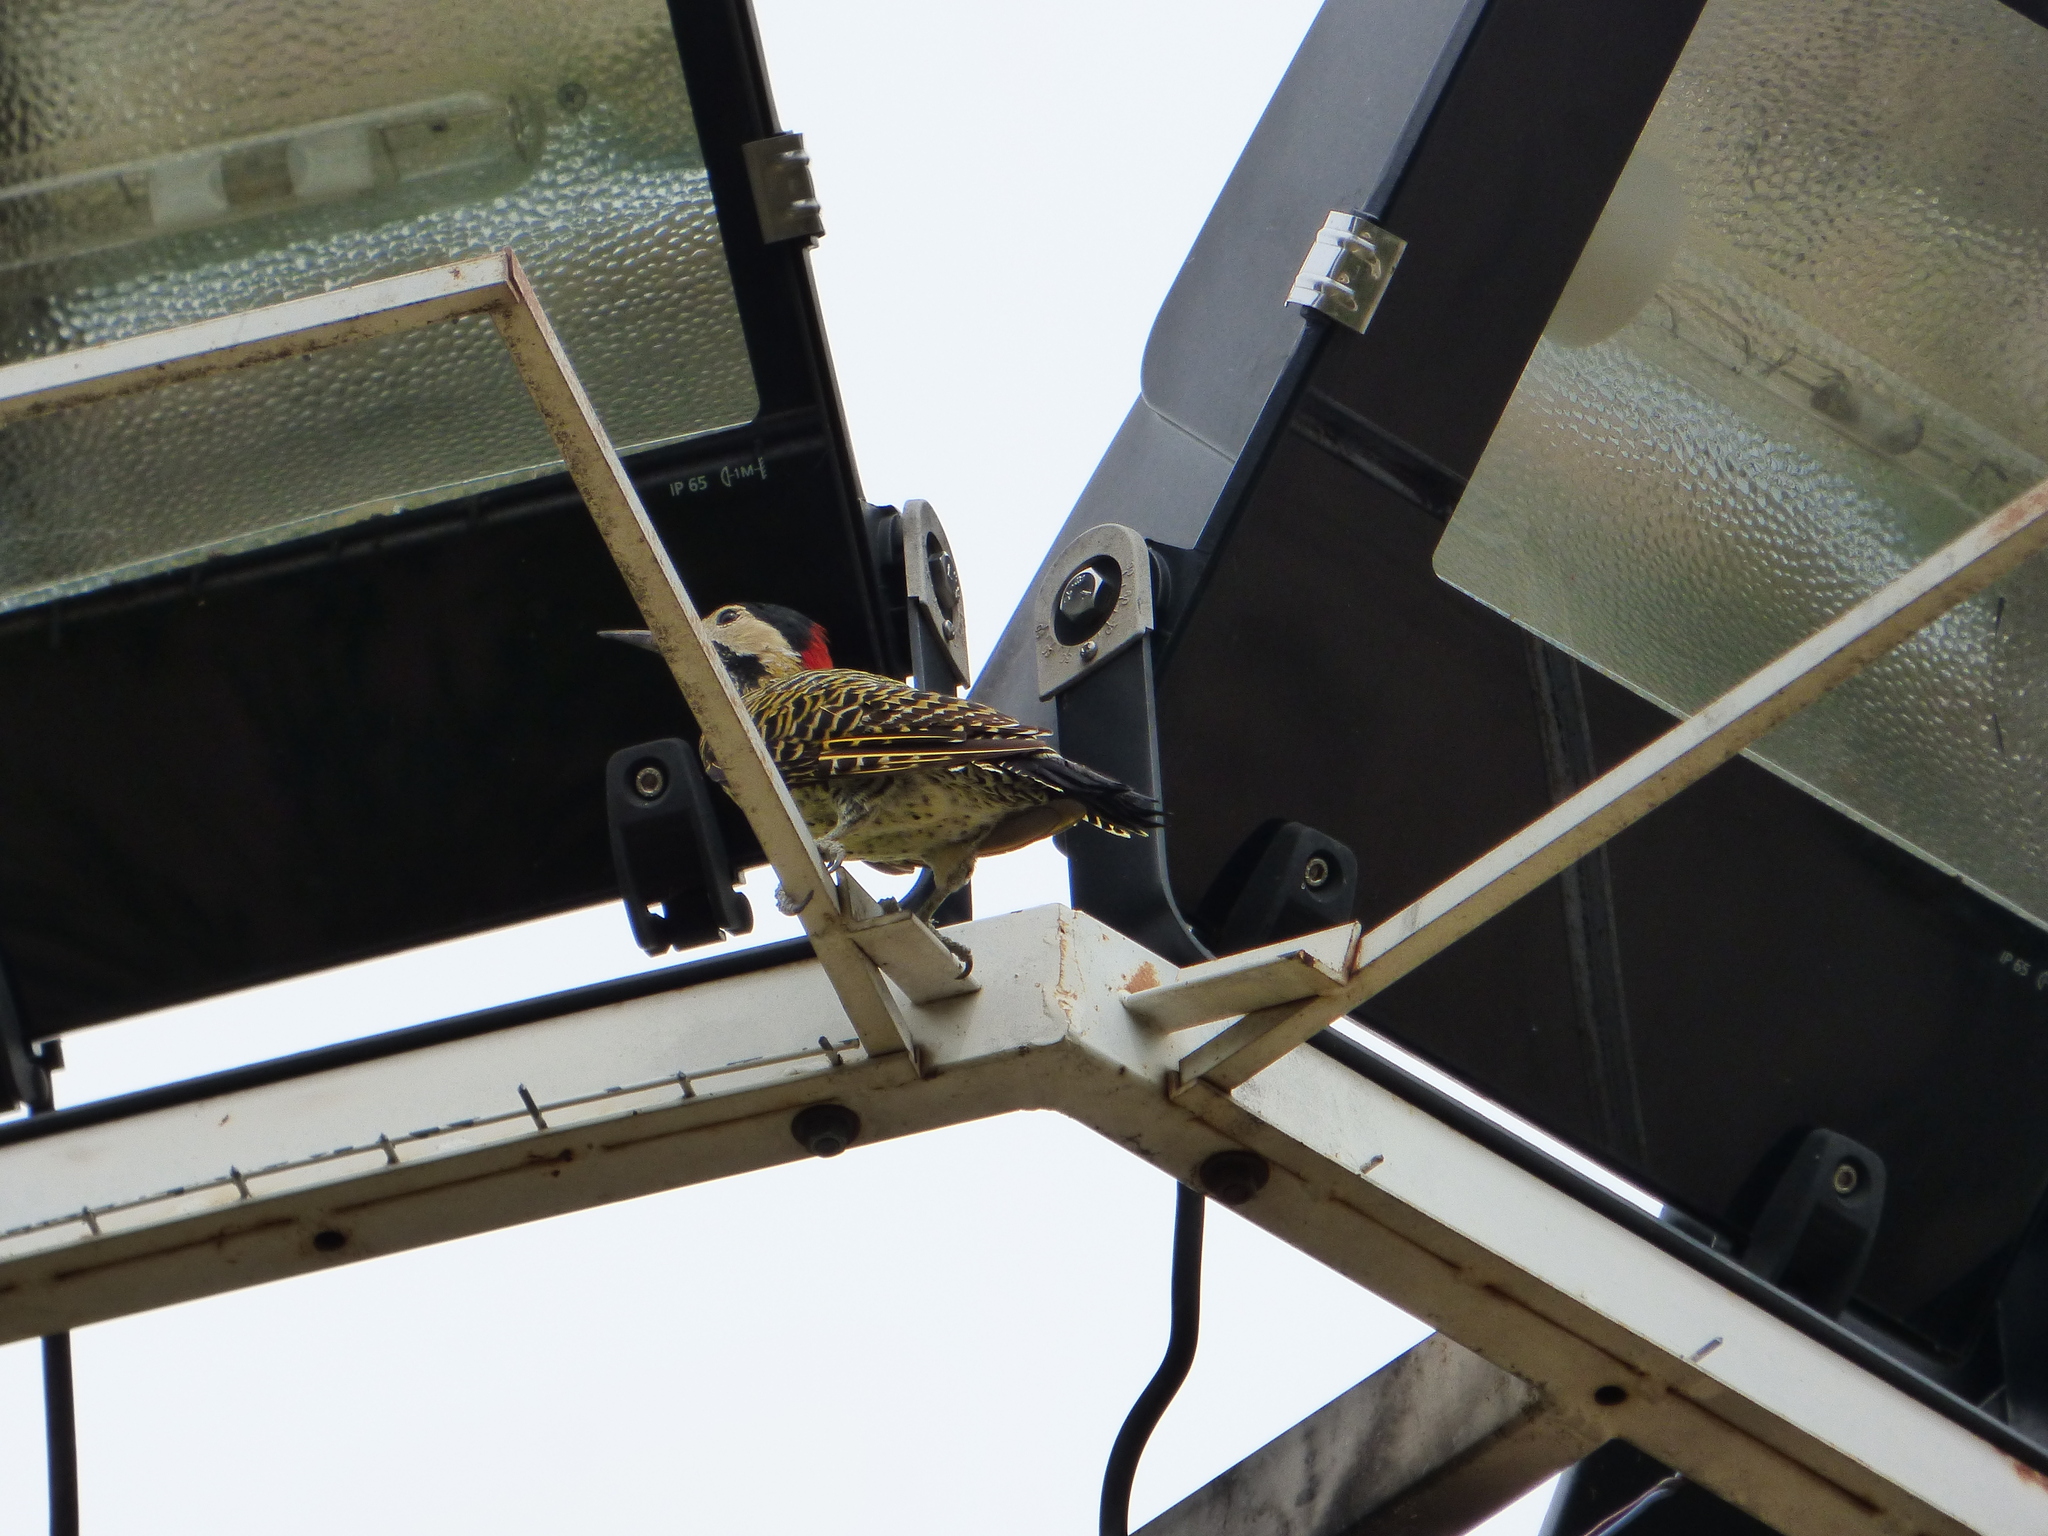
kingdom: Animalia
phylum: Chordata
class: Aves
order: Piciformes
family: Picidae
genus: Colaptes
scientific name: Colaptes melanochloros
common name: Green-barred woodpecker
